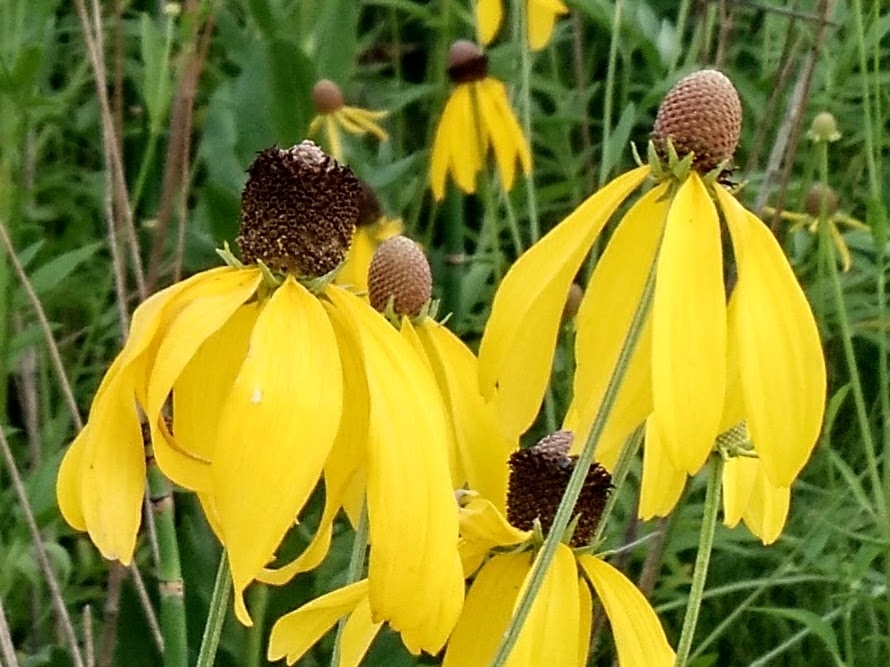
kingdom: Plantae
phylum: Tracheophyta
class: Magnoliopsida
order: Asterales
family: Asteraceae
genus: Ratibida
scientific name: Ratibida pinnata
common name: Drooping prairie-coneflower
